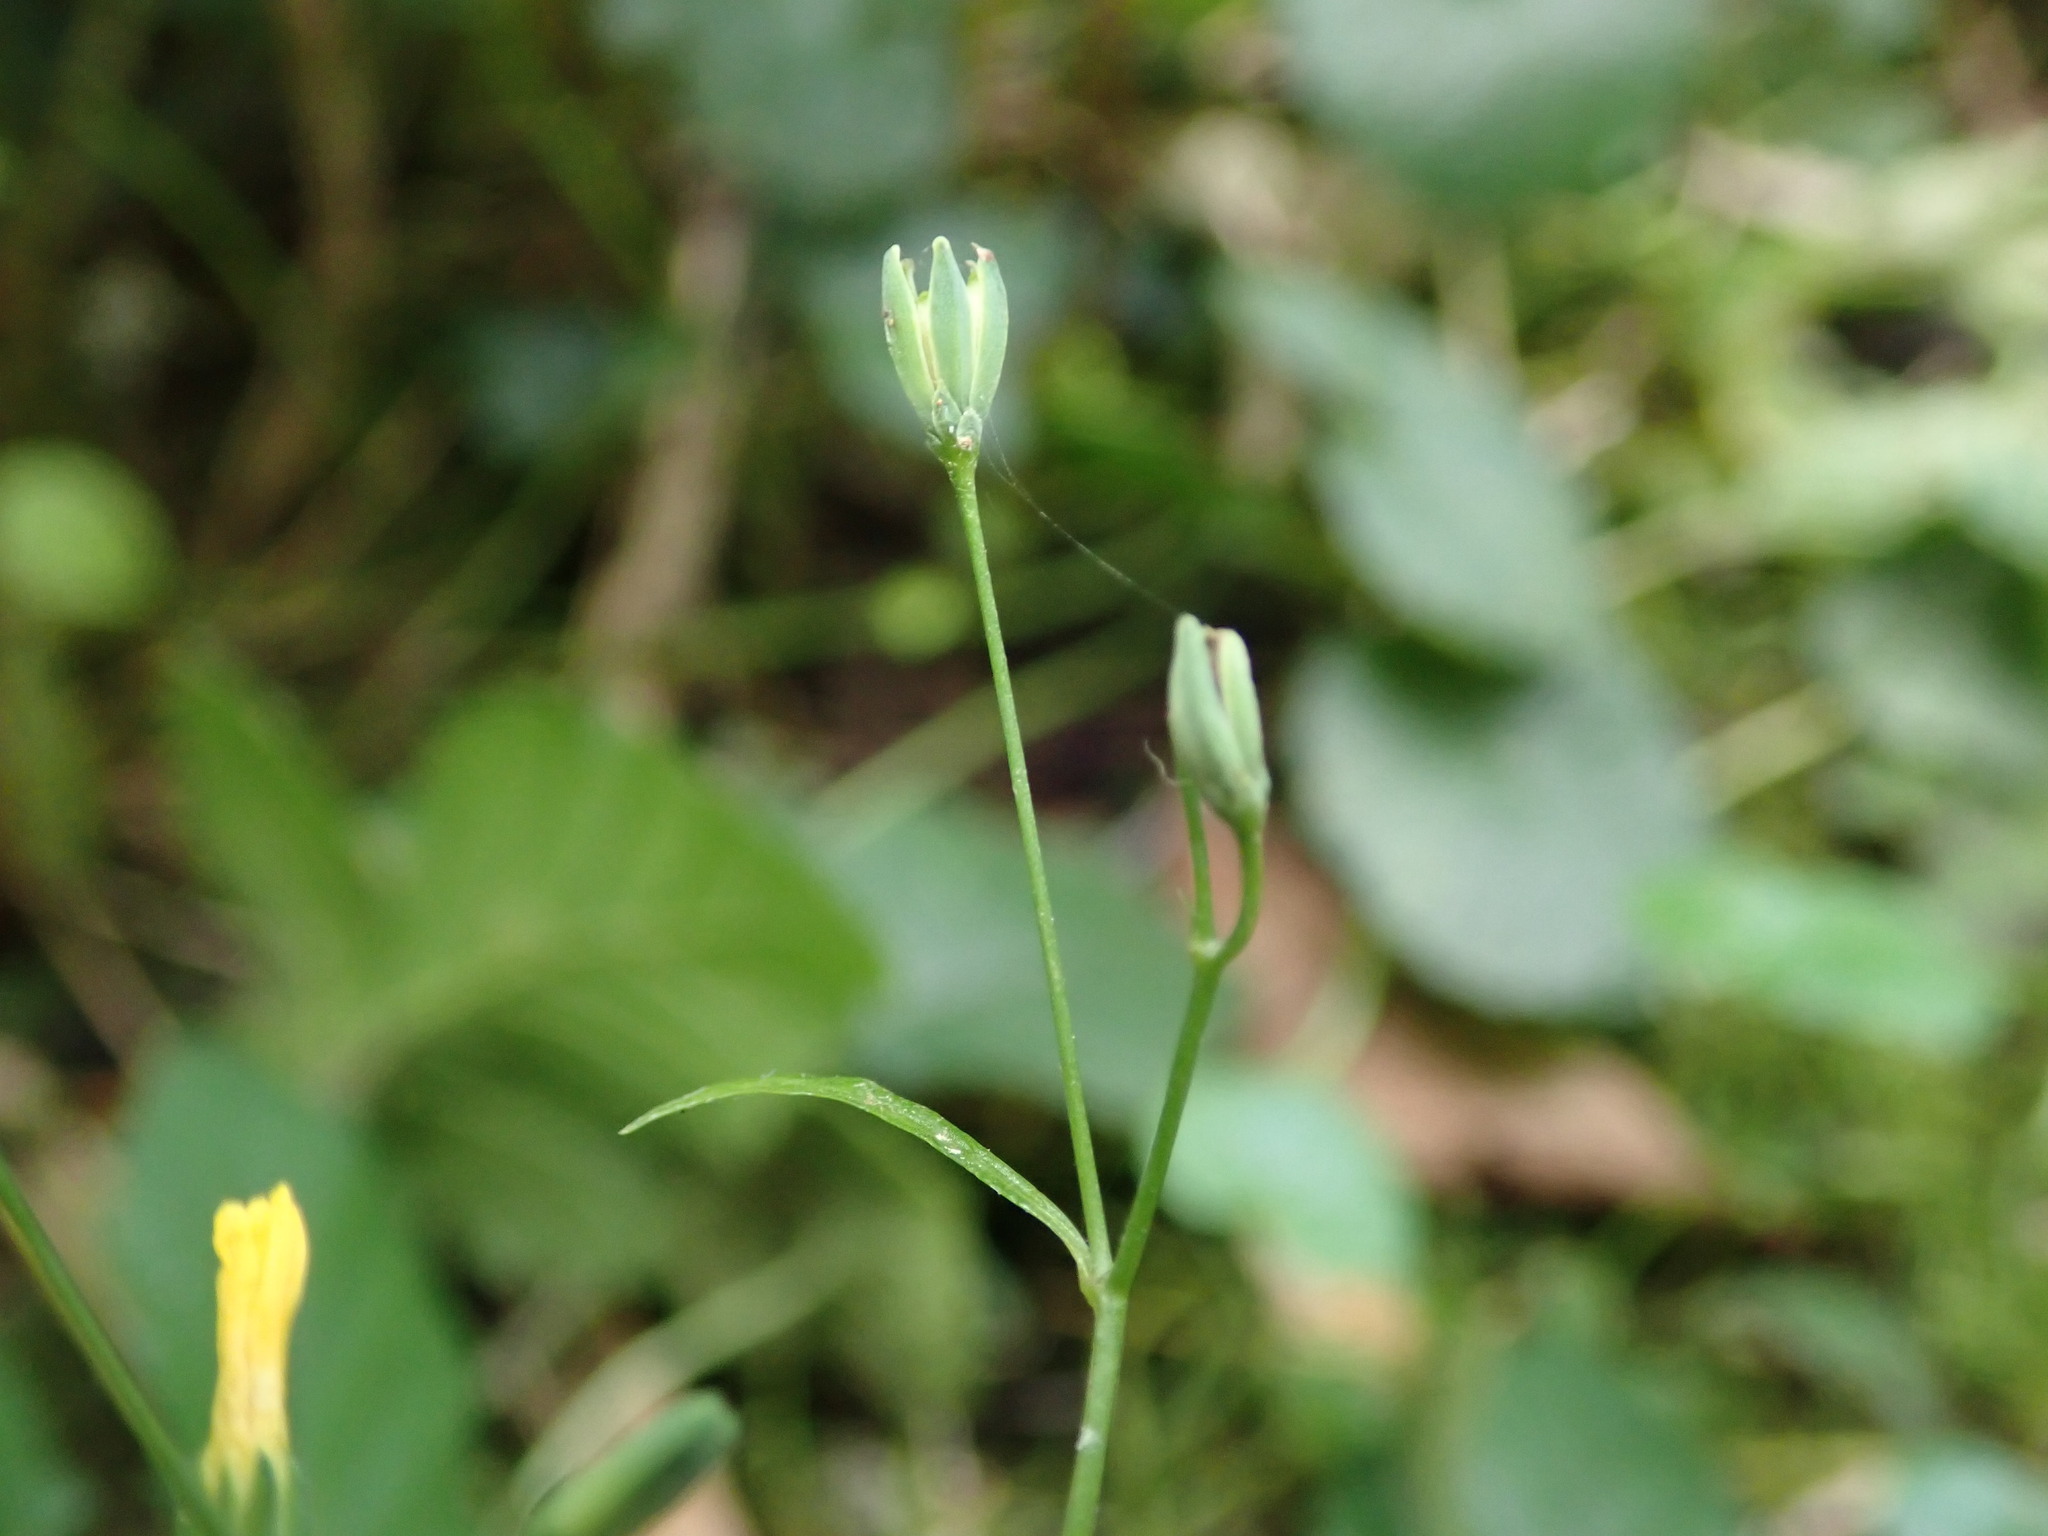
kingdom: Plantae
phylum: Tracheophyta
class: Magnoliopsida
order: Asterales
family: Asteraceae
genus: Lapsana
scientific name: Lapsana communis
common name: Nipplewort
